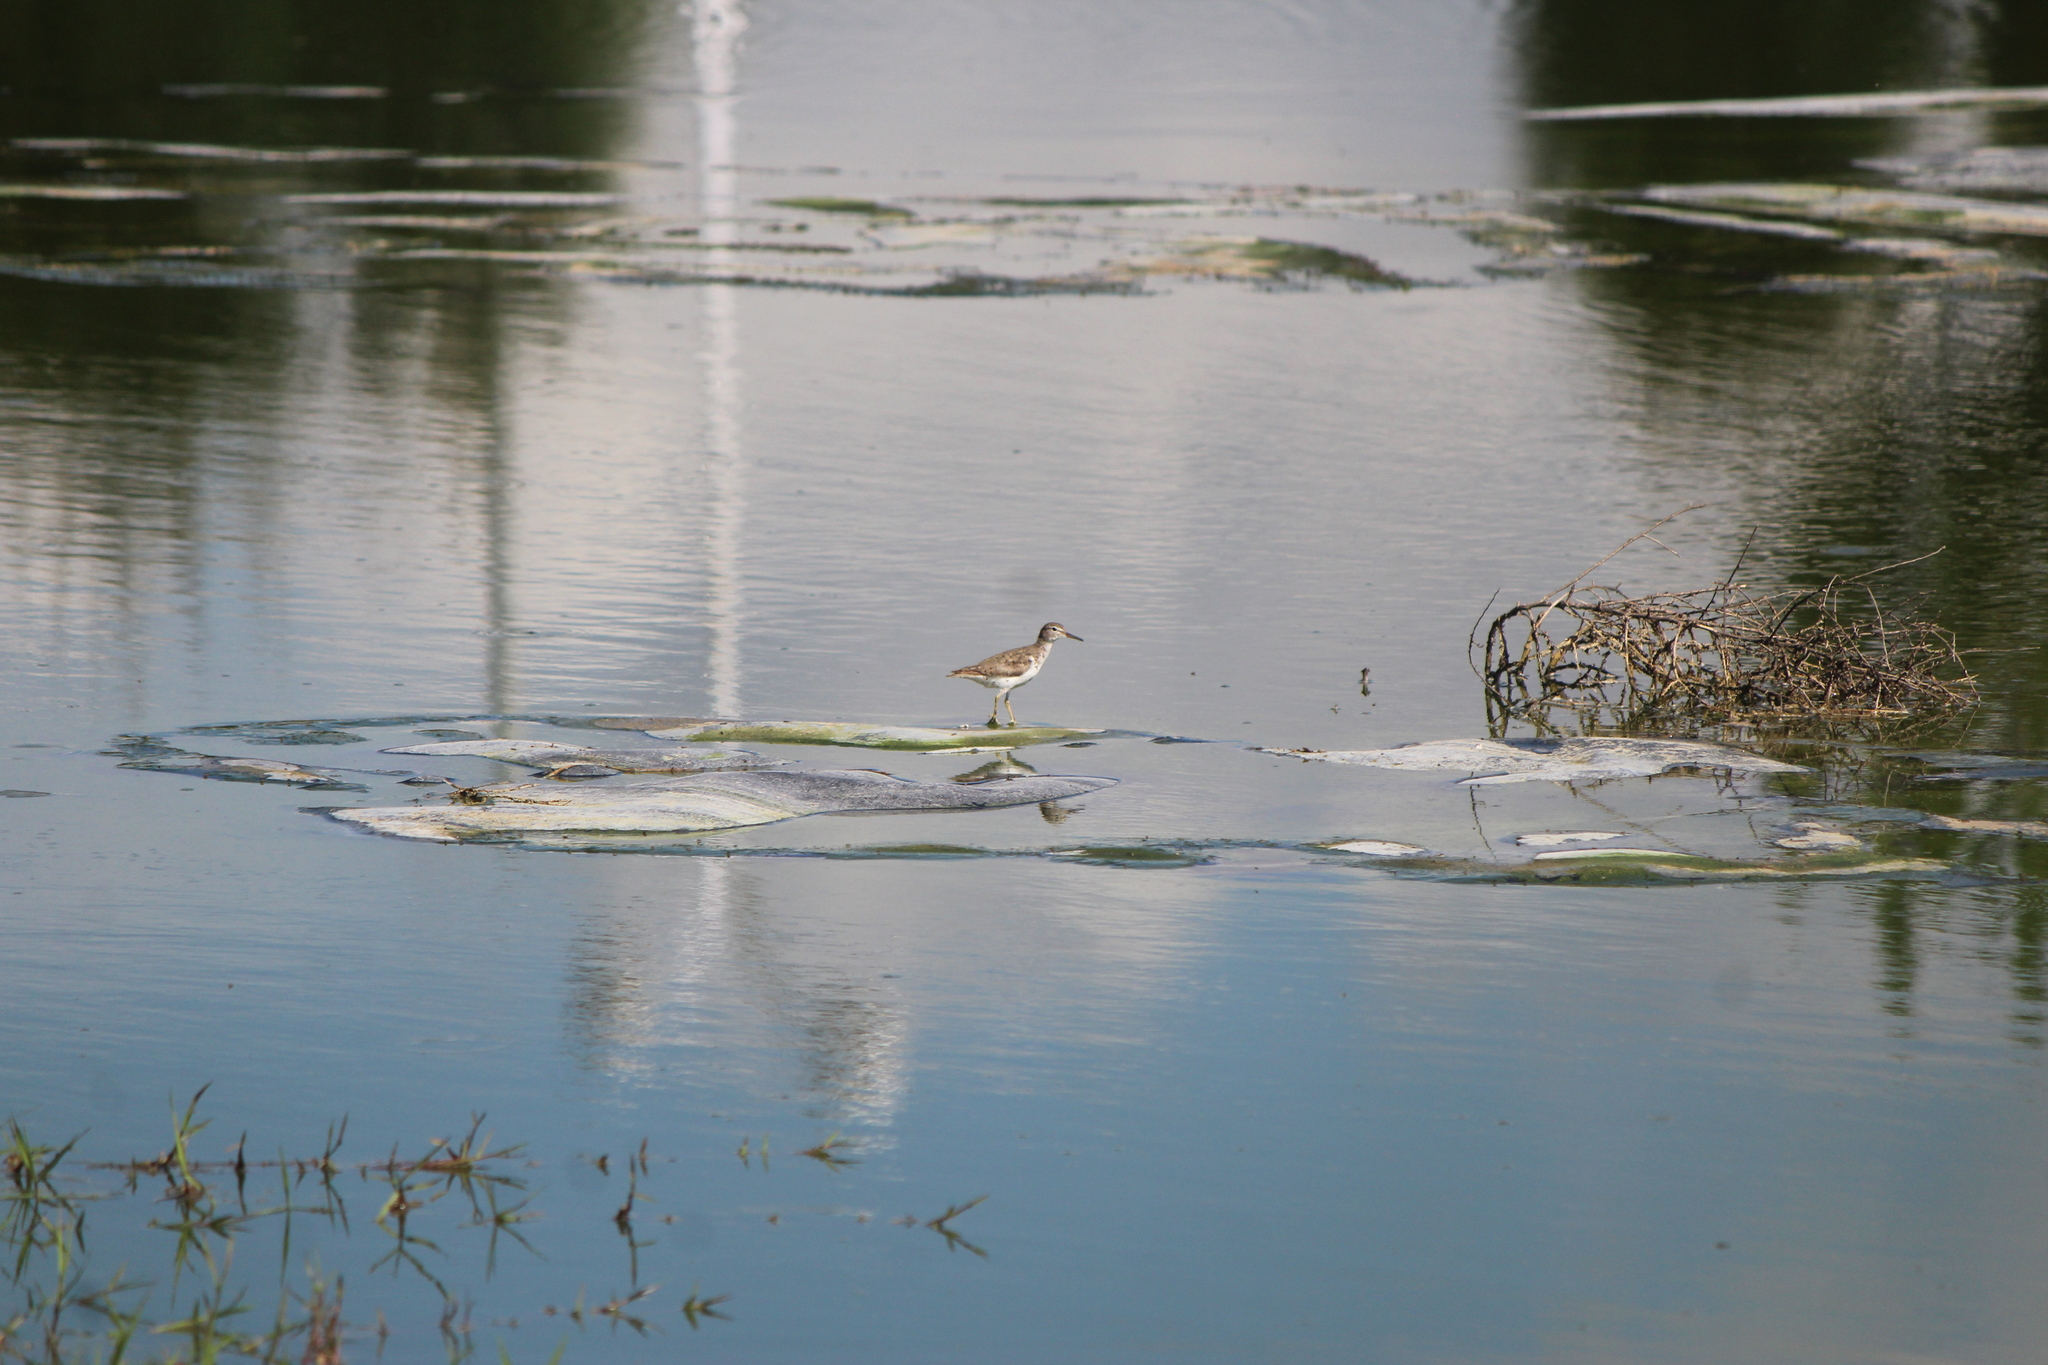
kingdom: Animalia
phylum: Chordata
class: Aves
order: Charadriiformes
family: Scolopacidae
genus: Actitis
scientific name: Actitis macularius
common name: Spotted sandpiper
